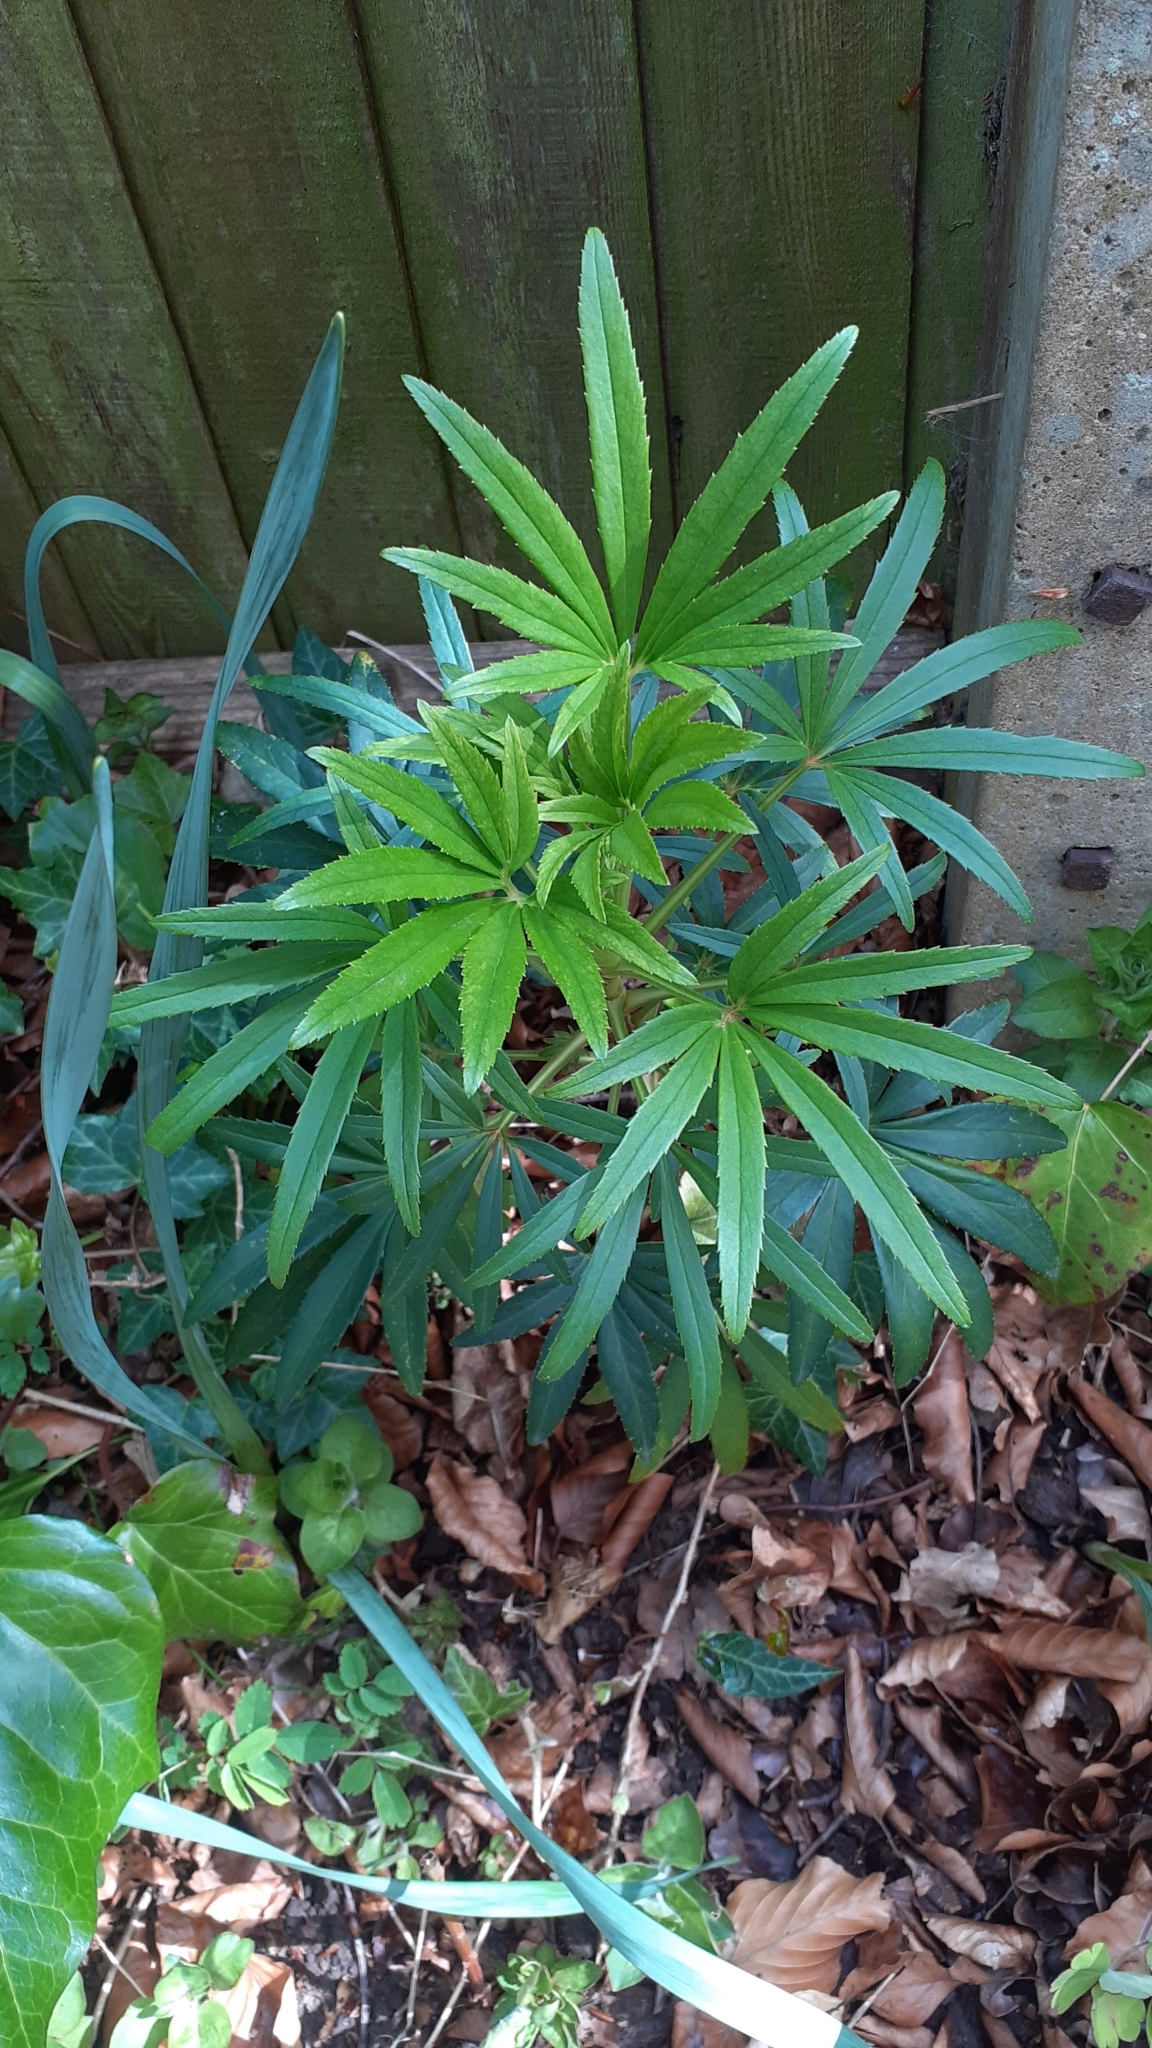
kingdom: Plantae
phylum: Tracheophyta
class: Magnoliopsida
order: Ranunculales
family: Ranunculaceae
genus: Helleborus
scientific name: Helleborus foetidus
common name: Stinking hellebore
